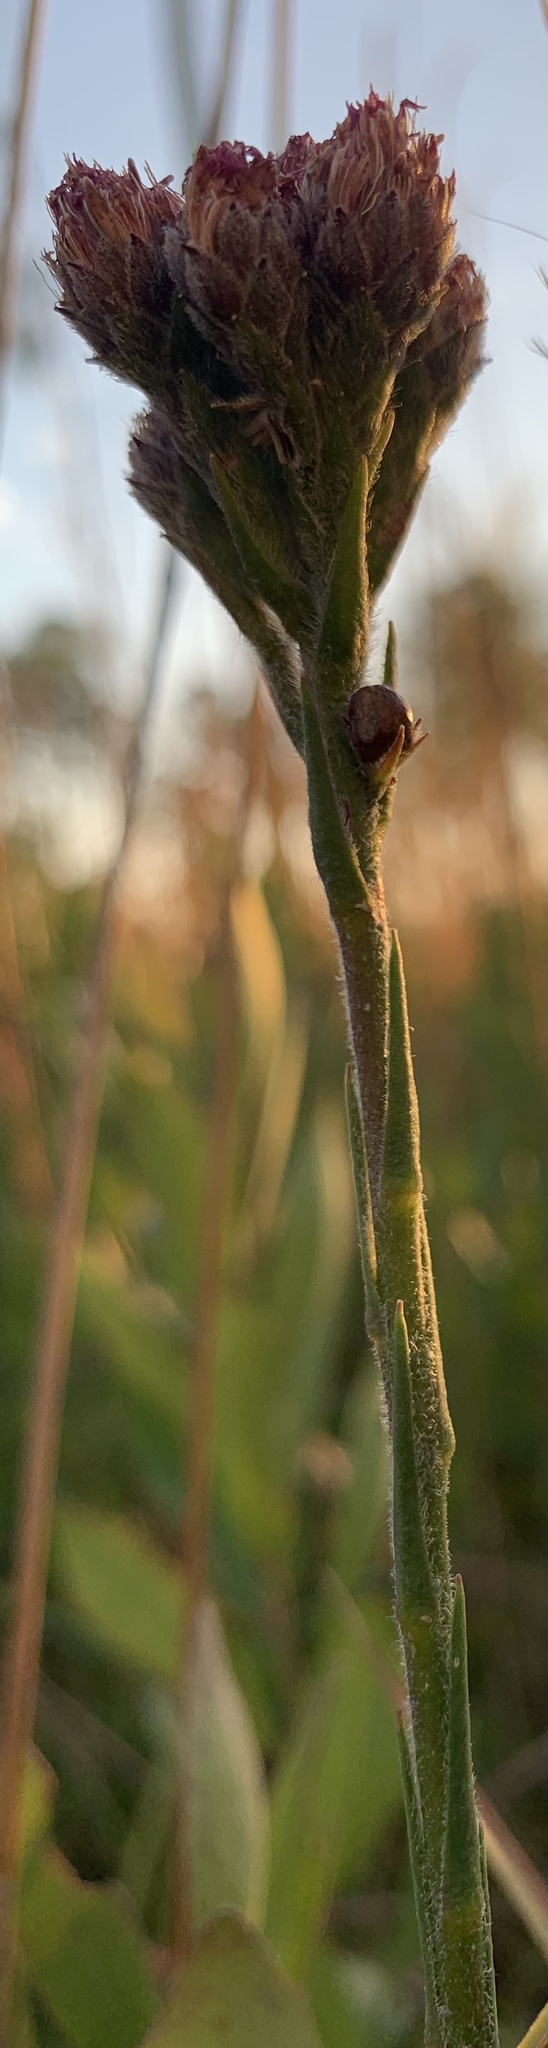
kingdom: Plantae
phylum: Tracheophyta
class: Magnoliopsida
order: Asterales
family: Asteraceae
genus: Carphephorus
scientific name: Carphephorus pseudoliatris
